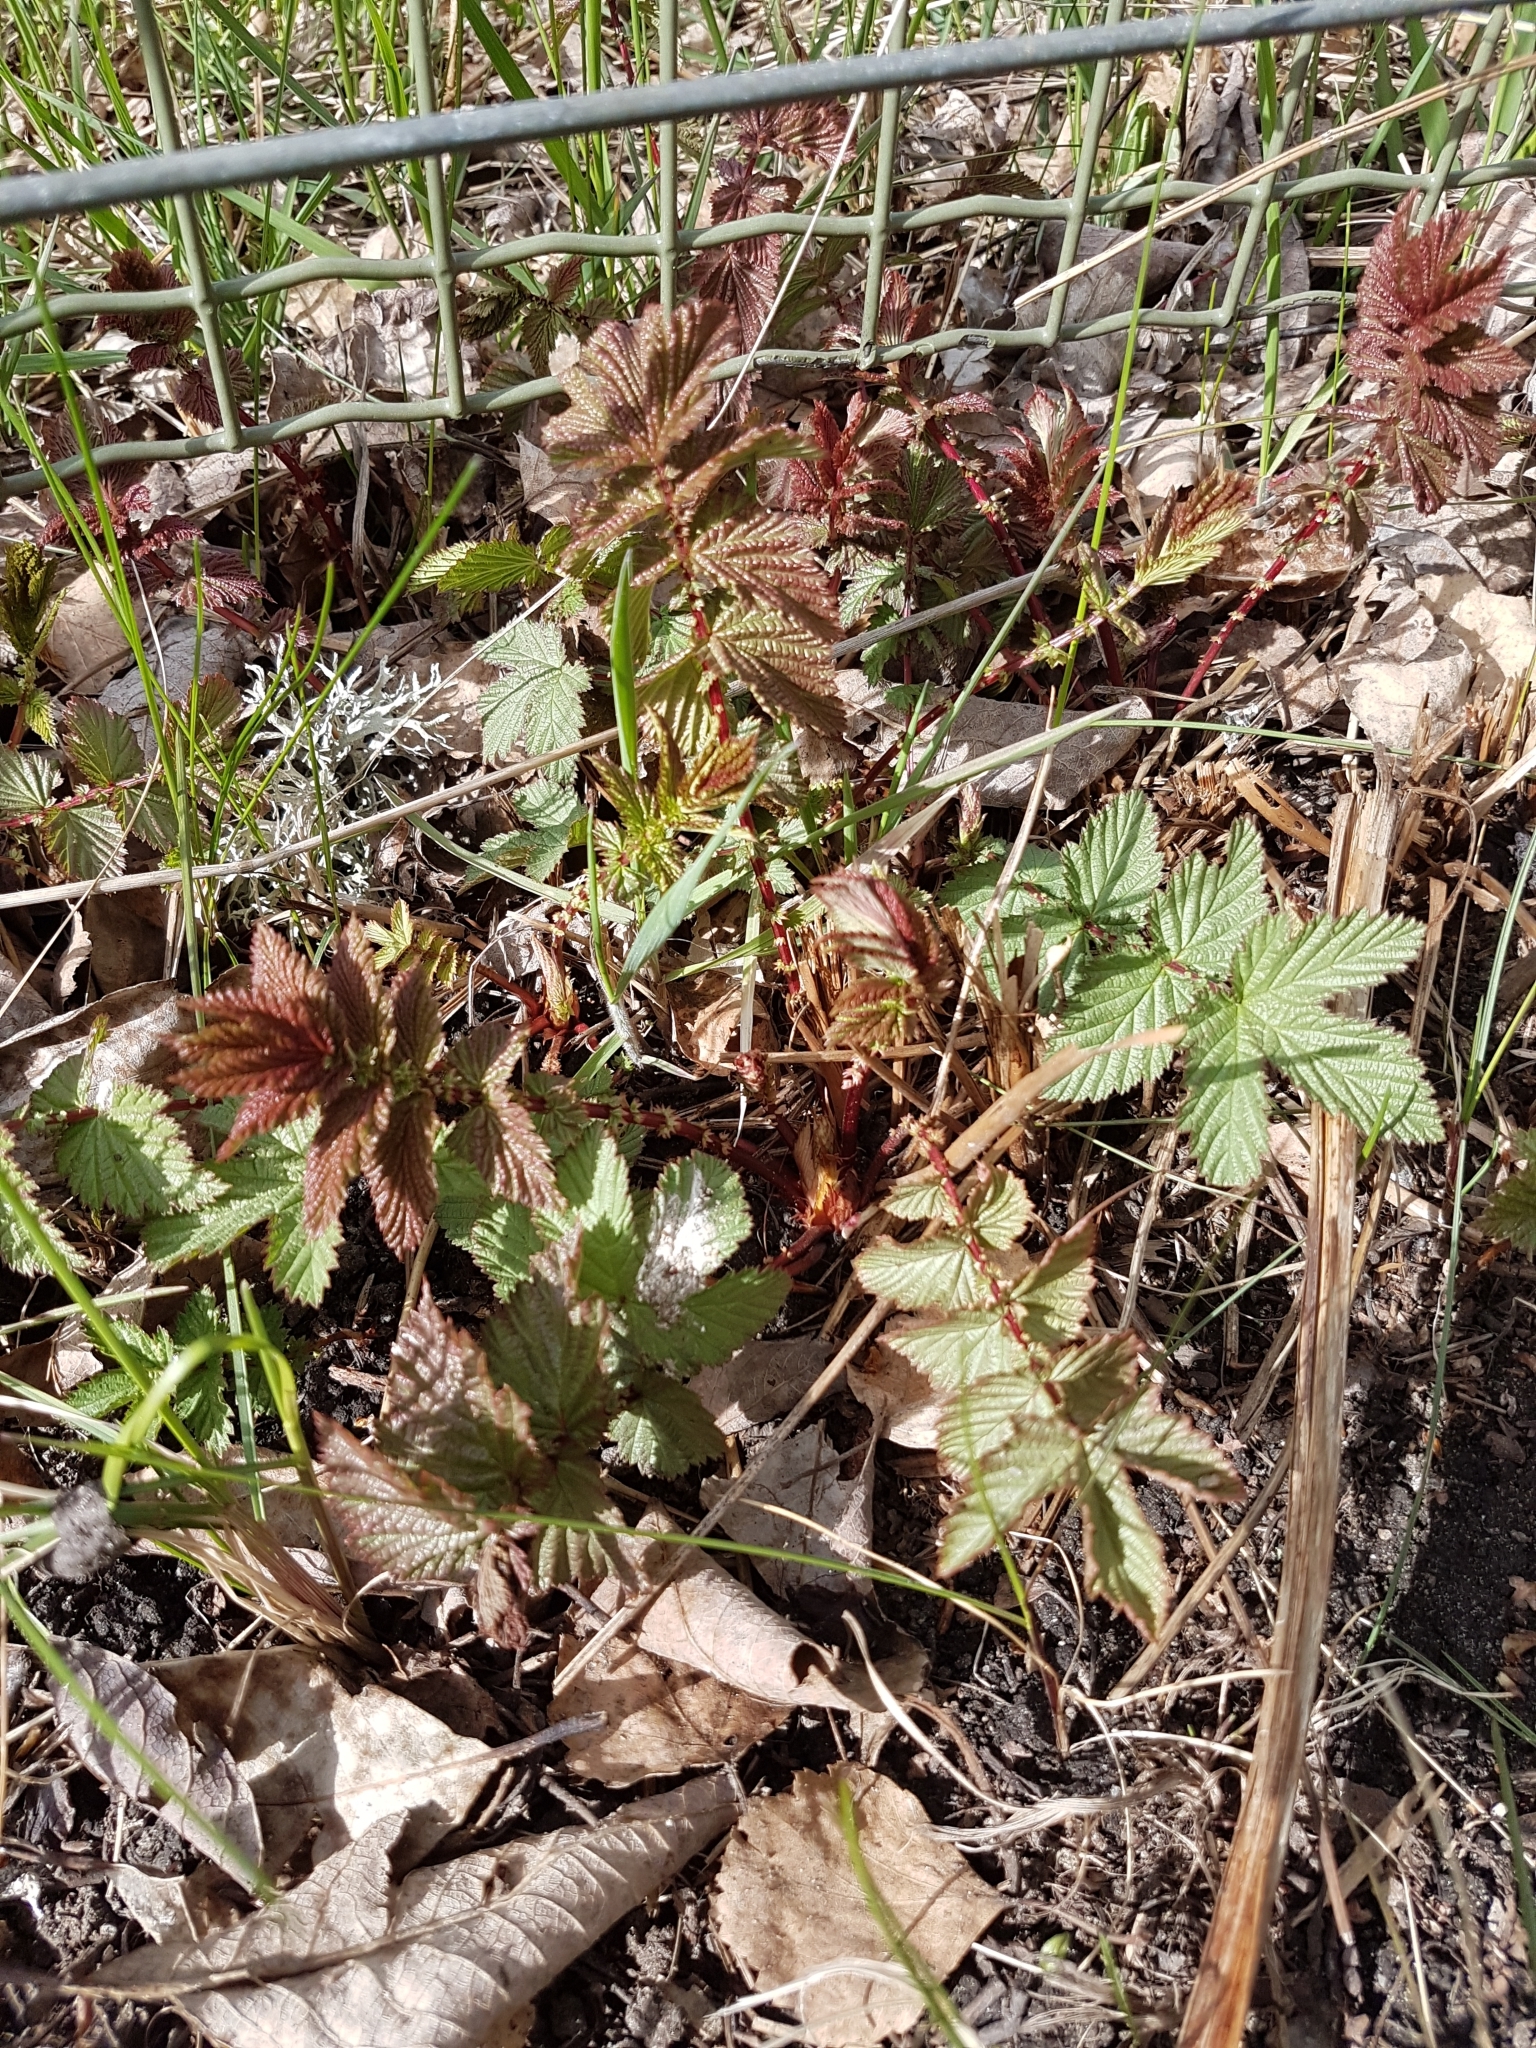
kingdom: Plantae
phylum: Tracheophyta
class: Magnoliopsida
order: Rosales
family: Rosaceae
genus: Filipendula
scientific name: Filipendula ulmaria
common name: Meadowsweet
